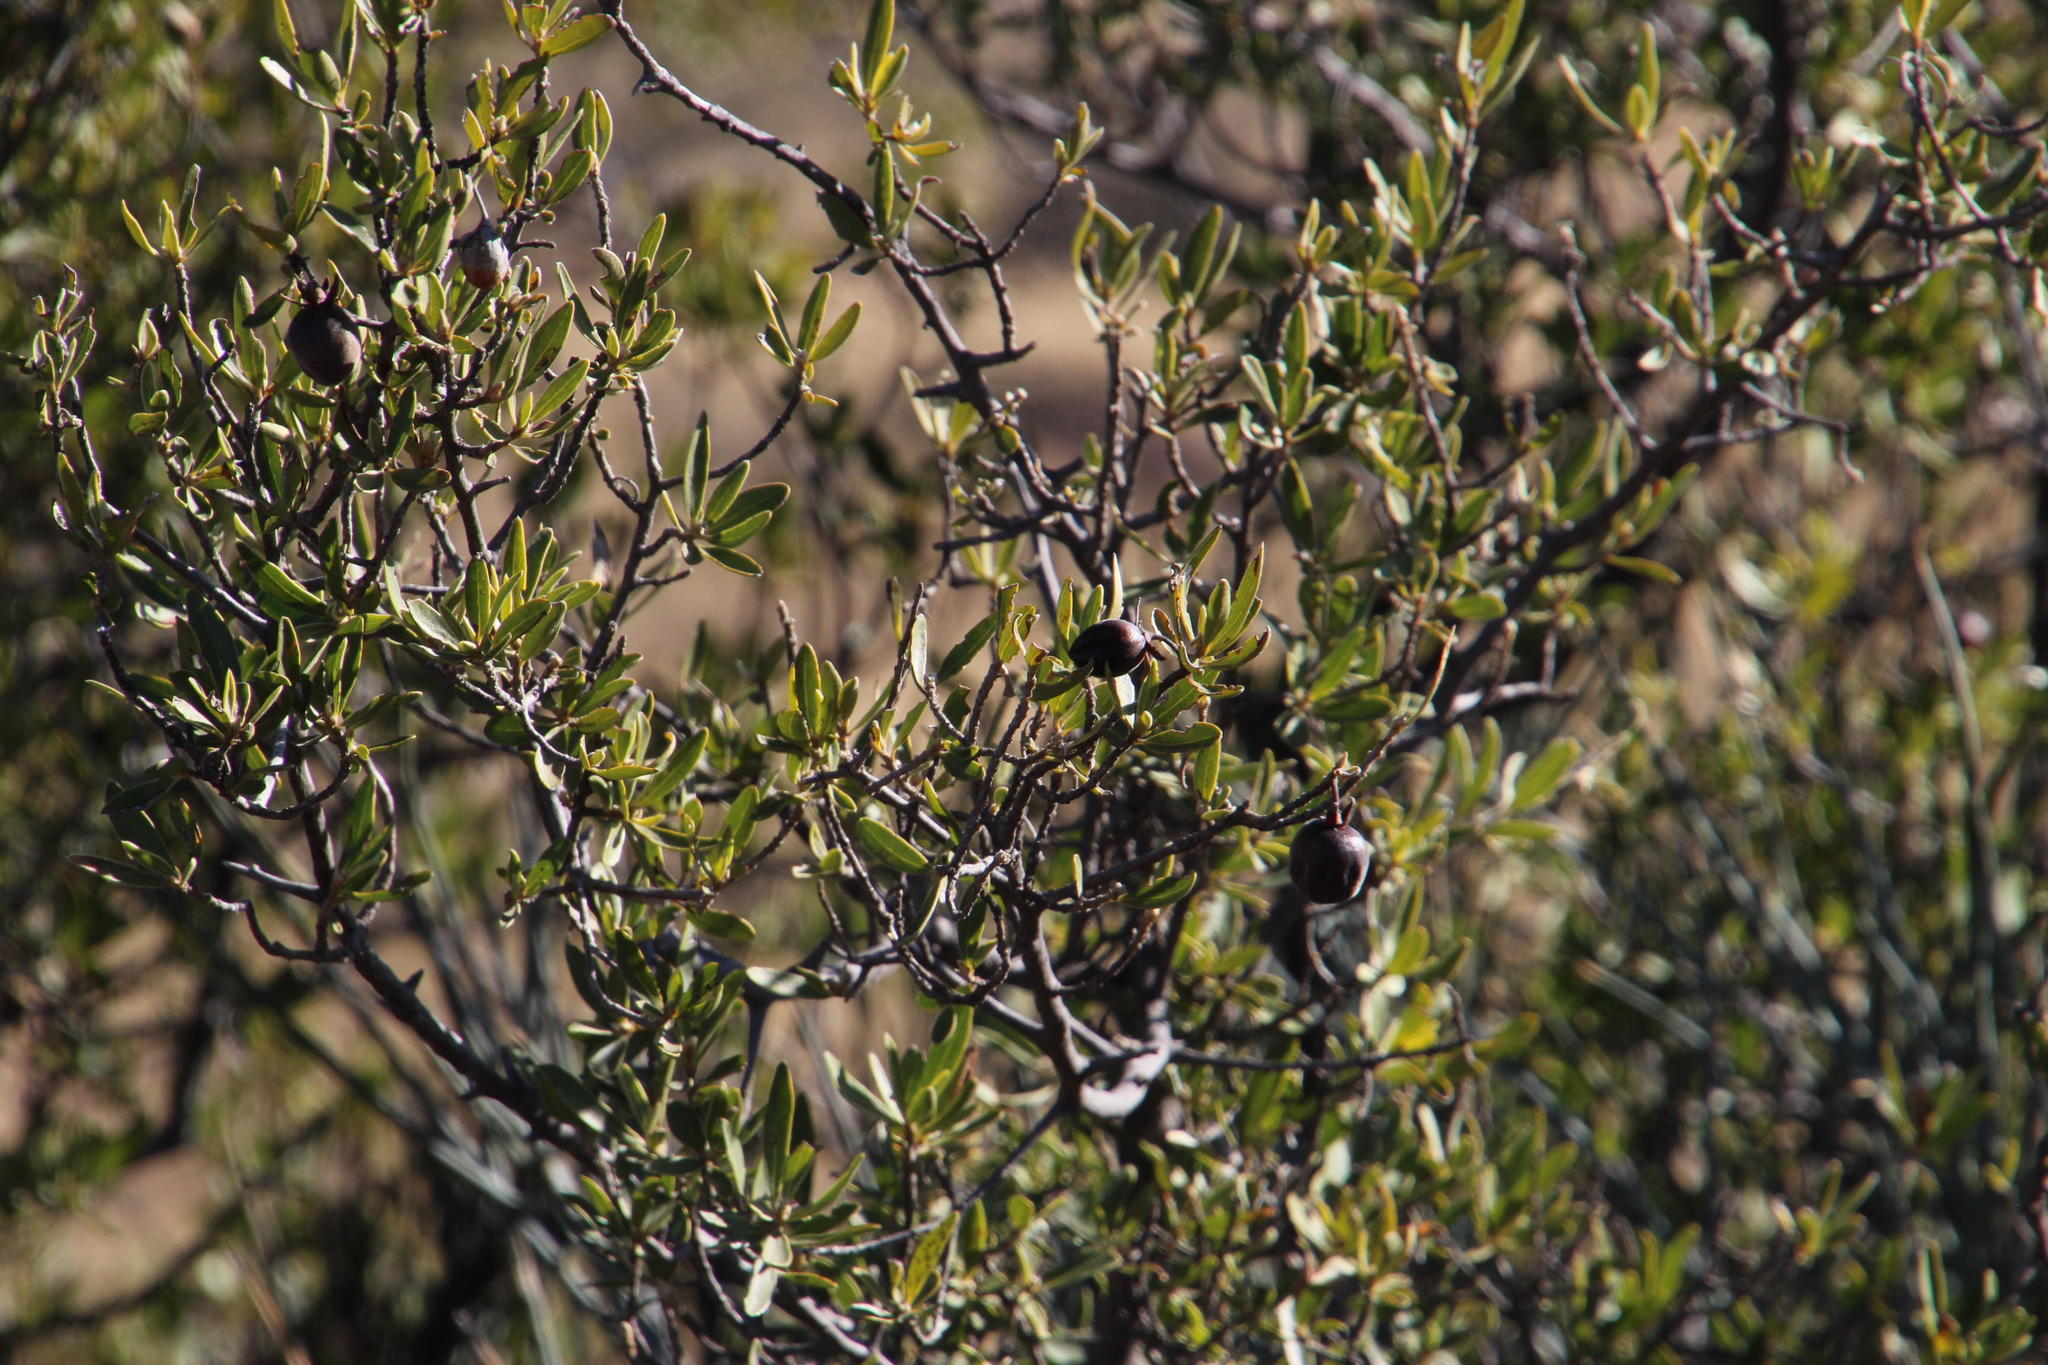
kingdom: Plantae
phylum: Tracheophyta
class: Magnoliopsida
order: Ericales
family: Ebenaceae
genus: Diospyros
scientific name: Diospyros lycioides
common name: Red star apple
